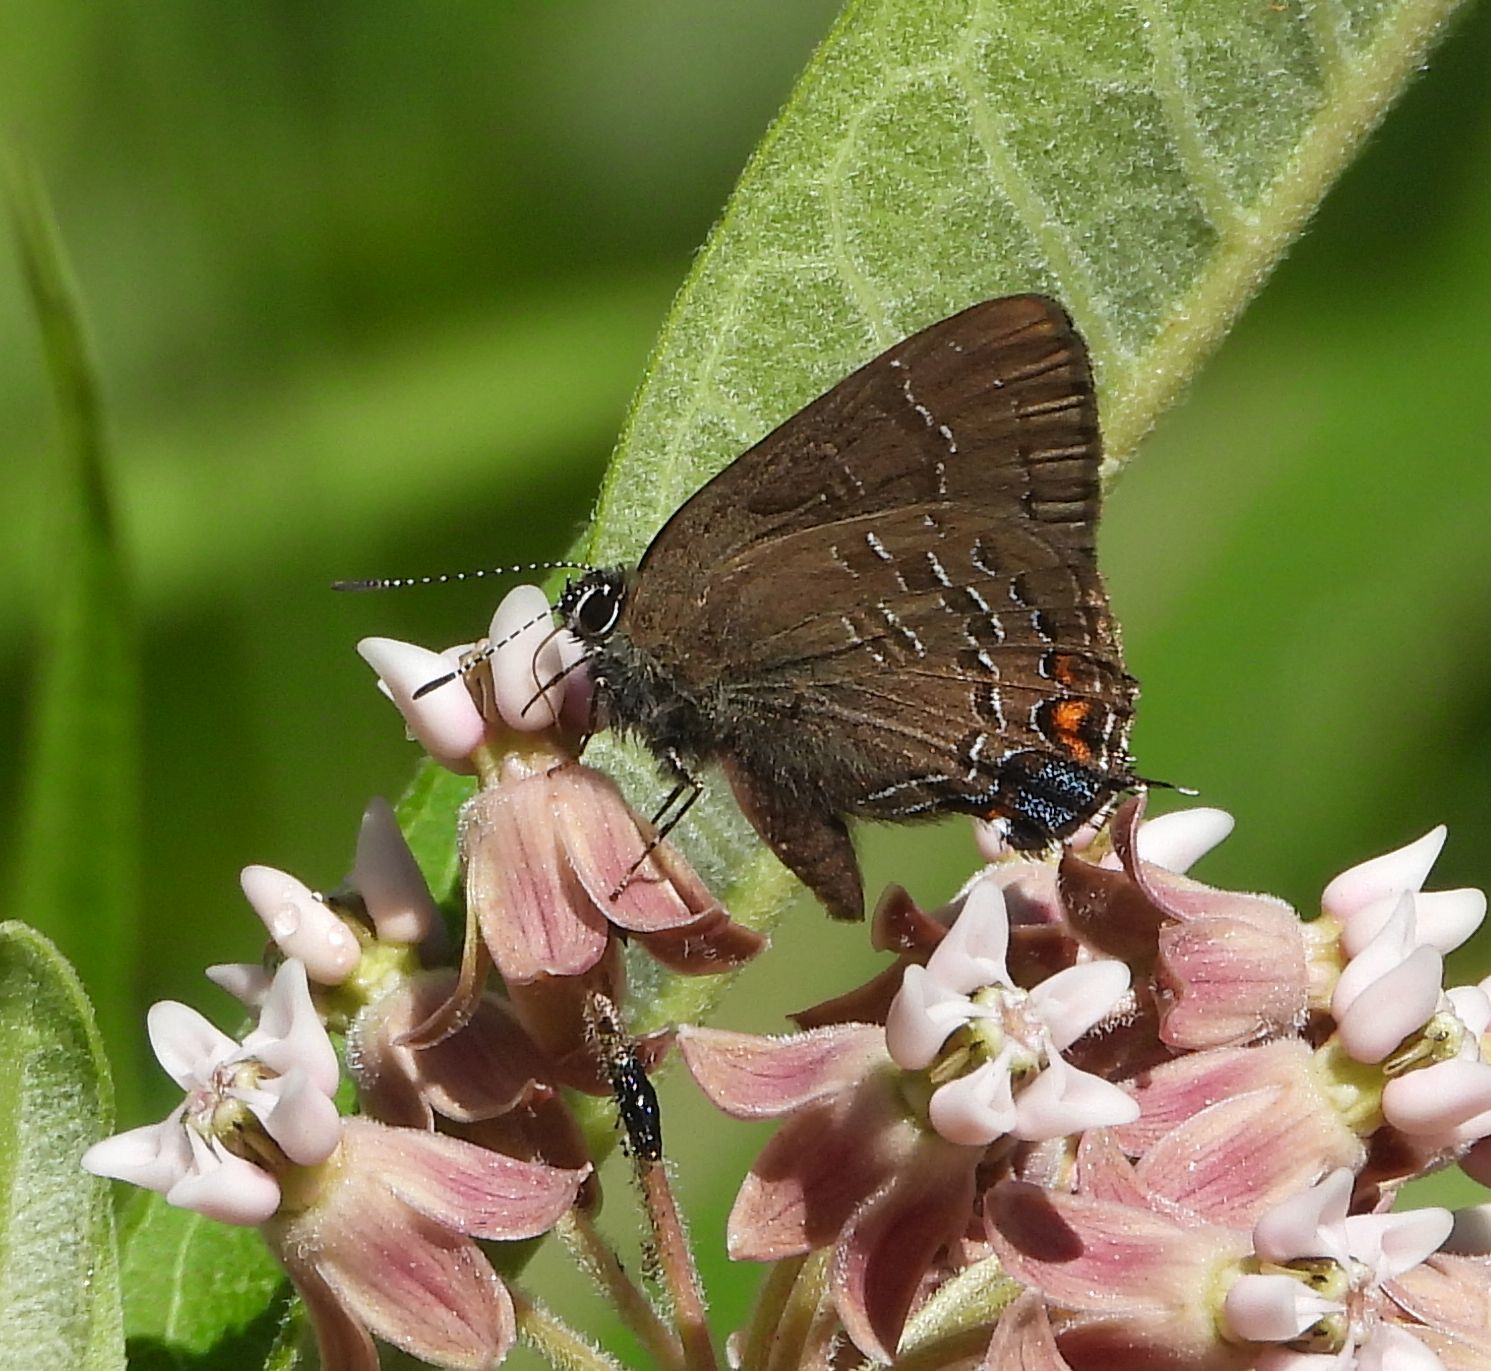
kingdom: Animalia
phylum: Arthropoda
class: Insecta
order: Lepidoptera
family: Lycaenidae
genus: Satyrium
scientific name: Satyrium calanus
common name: Banded hairstreak
